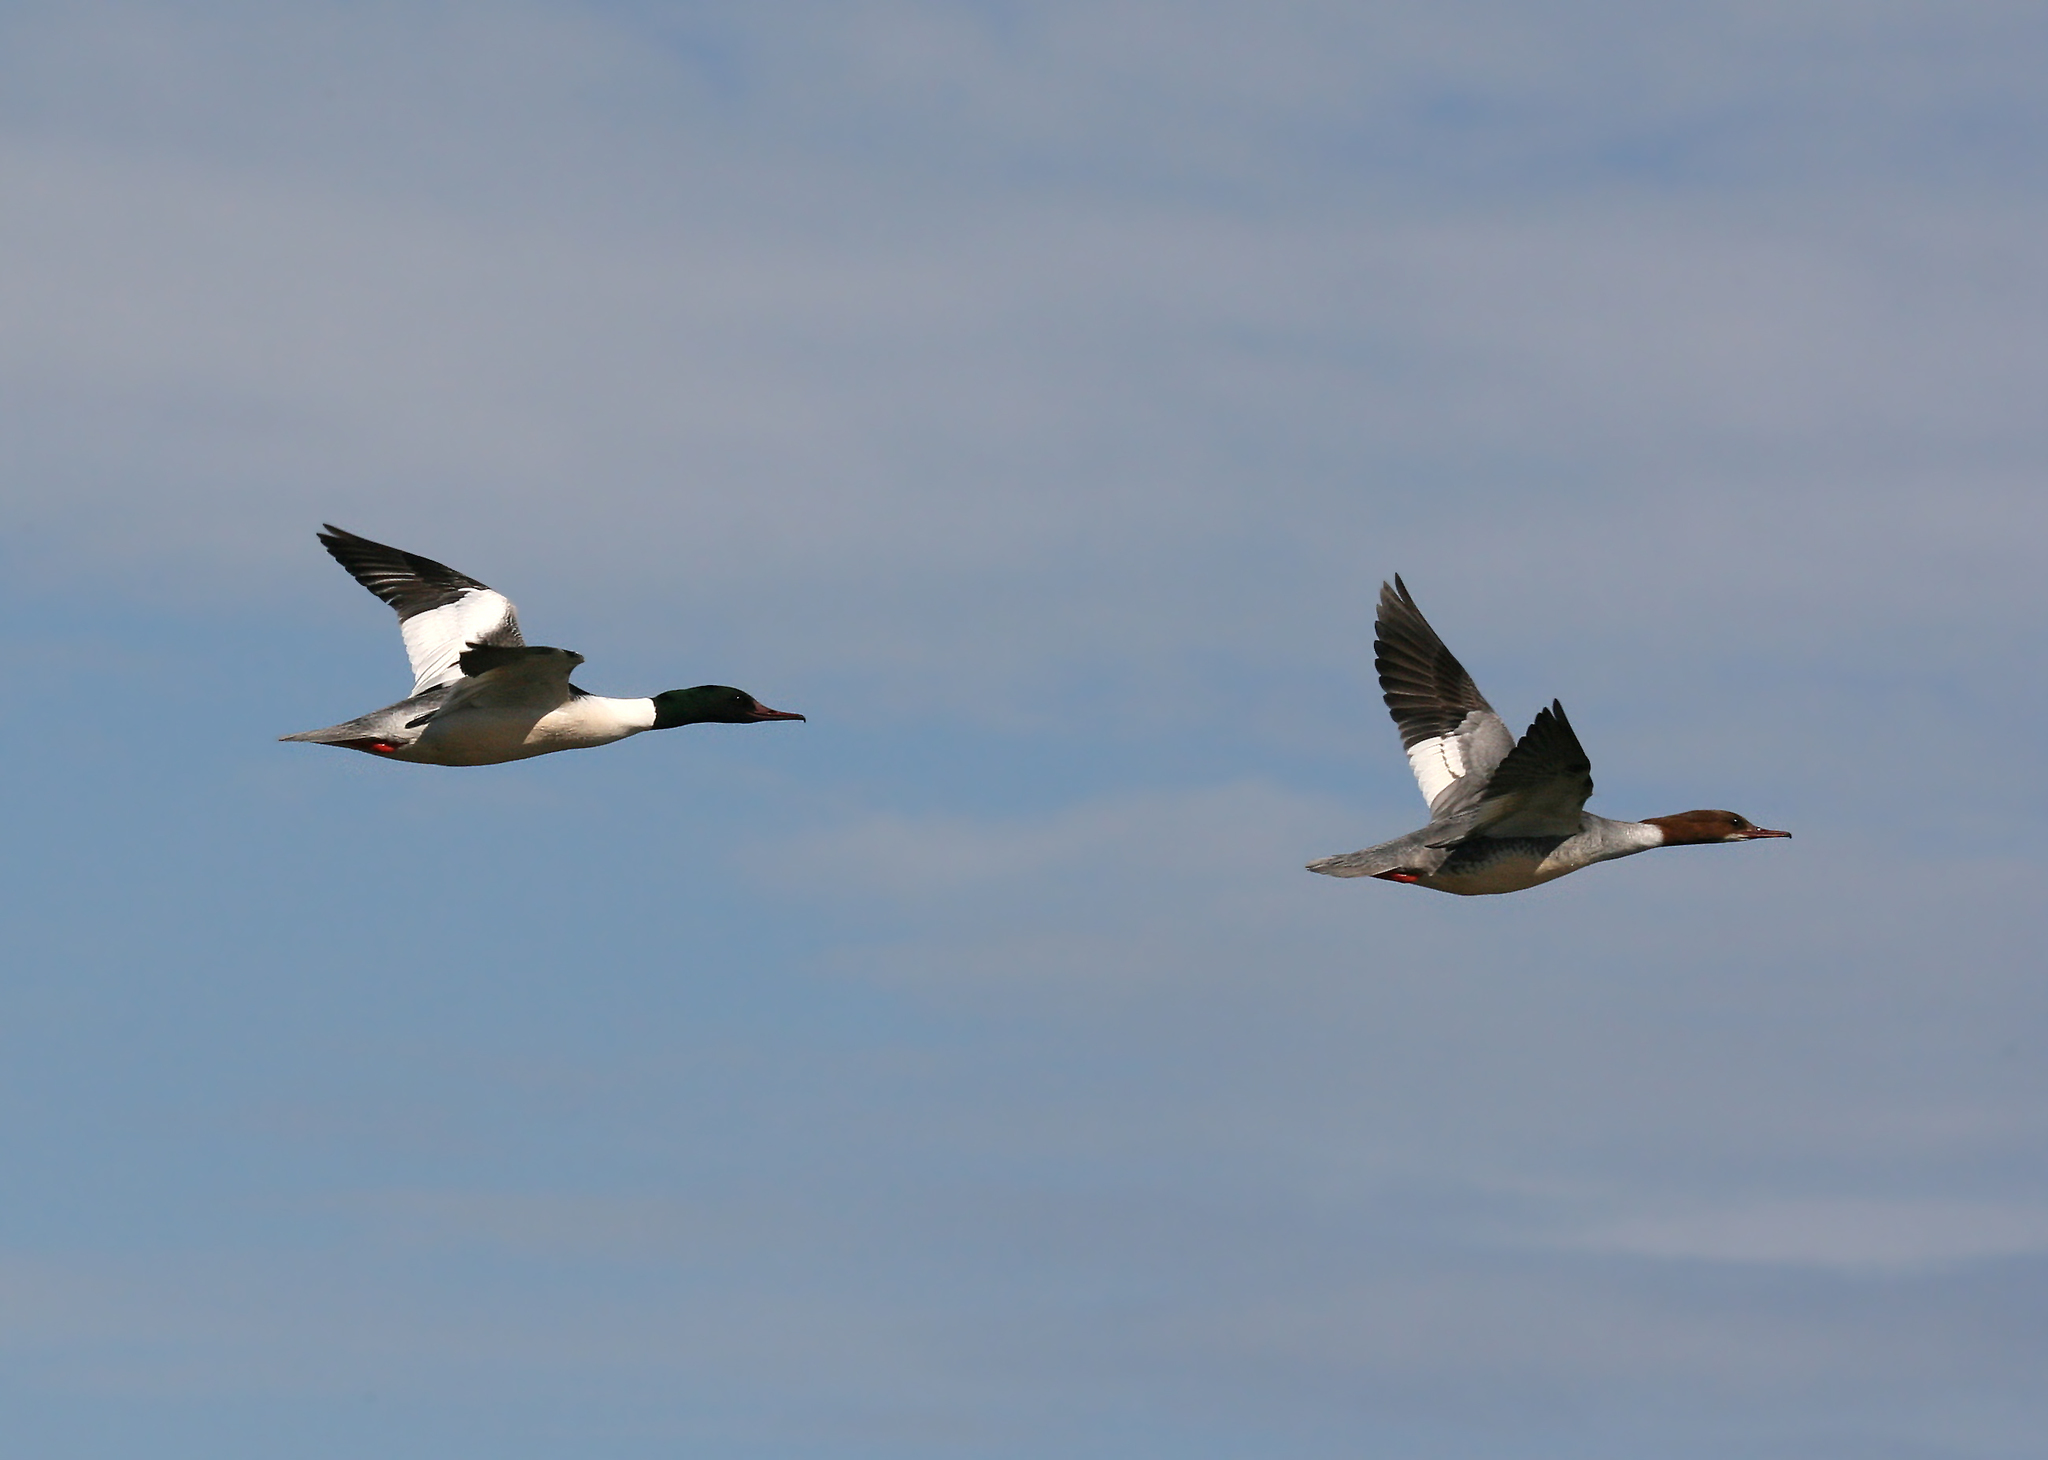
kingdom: Animalia
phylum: Chordata
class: Aves
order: Anseriformes
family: Anatidae
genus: Mergus
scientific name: Mergus merganser
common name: Common merganser
